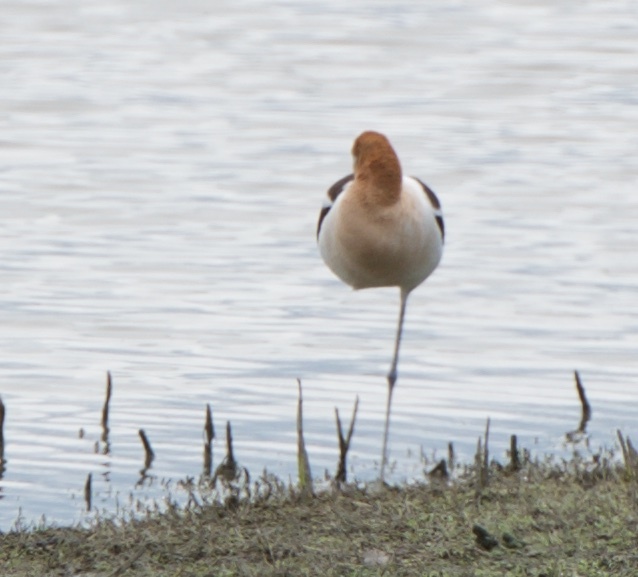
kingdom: Animalia
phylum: Chordata
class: Aves
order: Charadriiformes
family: Recurvirostridae
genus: Recurvirostra
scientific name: Recurvirostra americana
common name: American avocet
